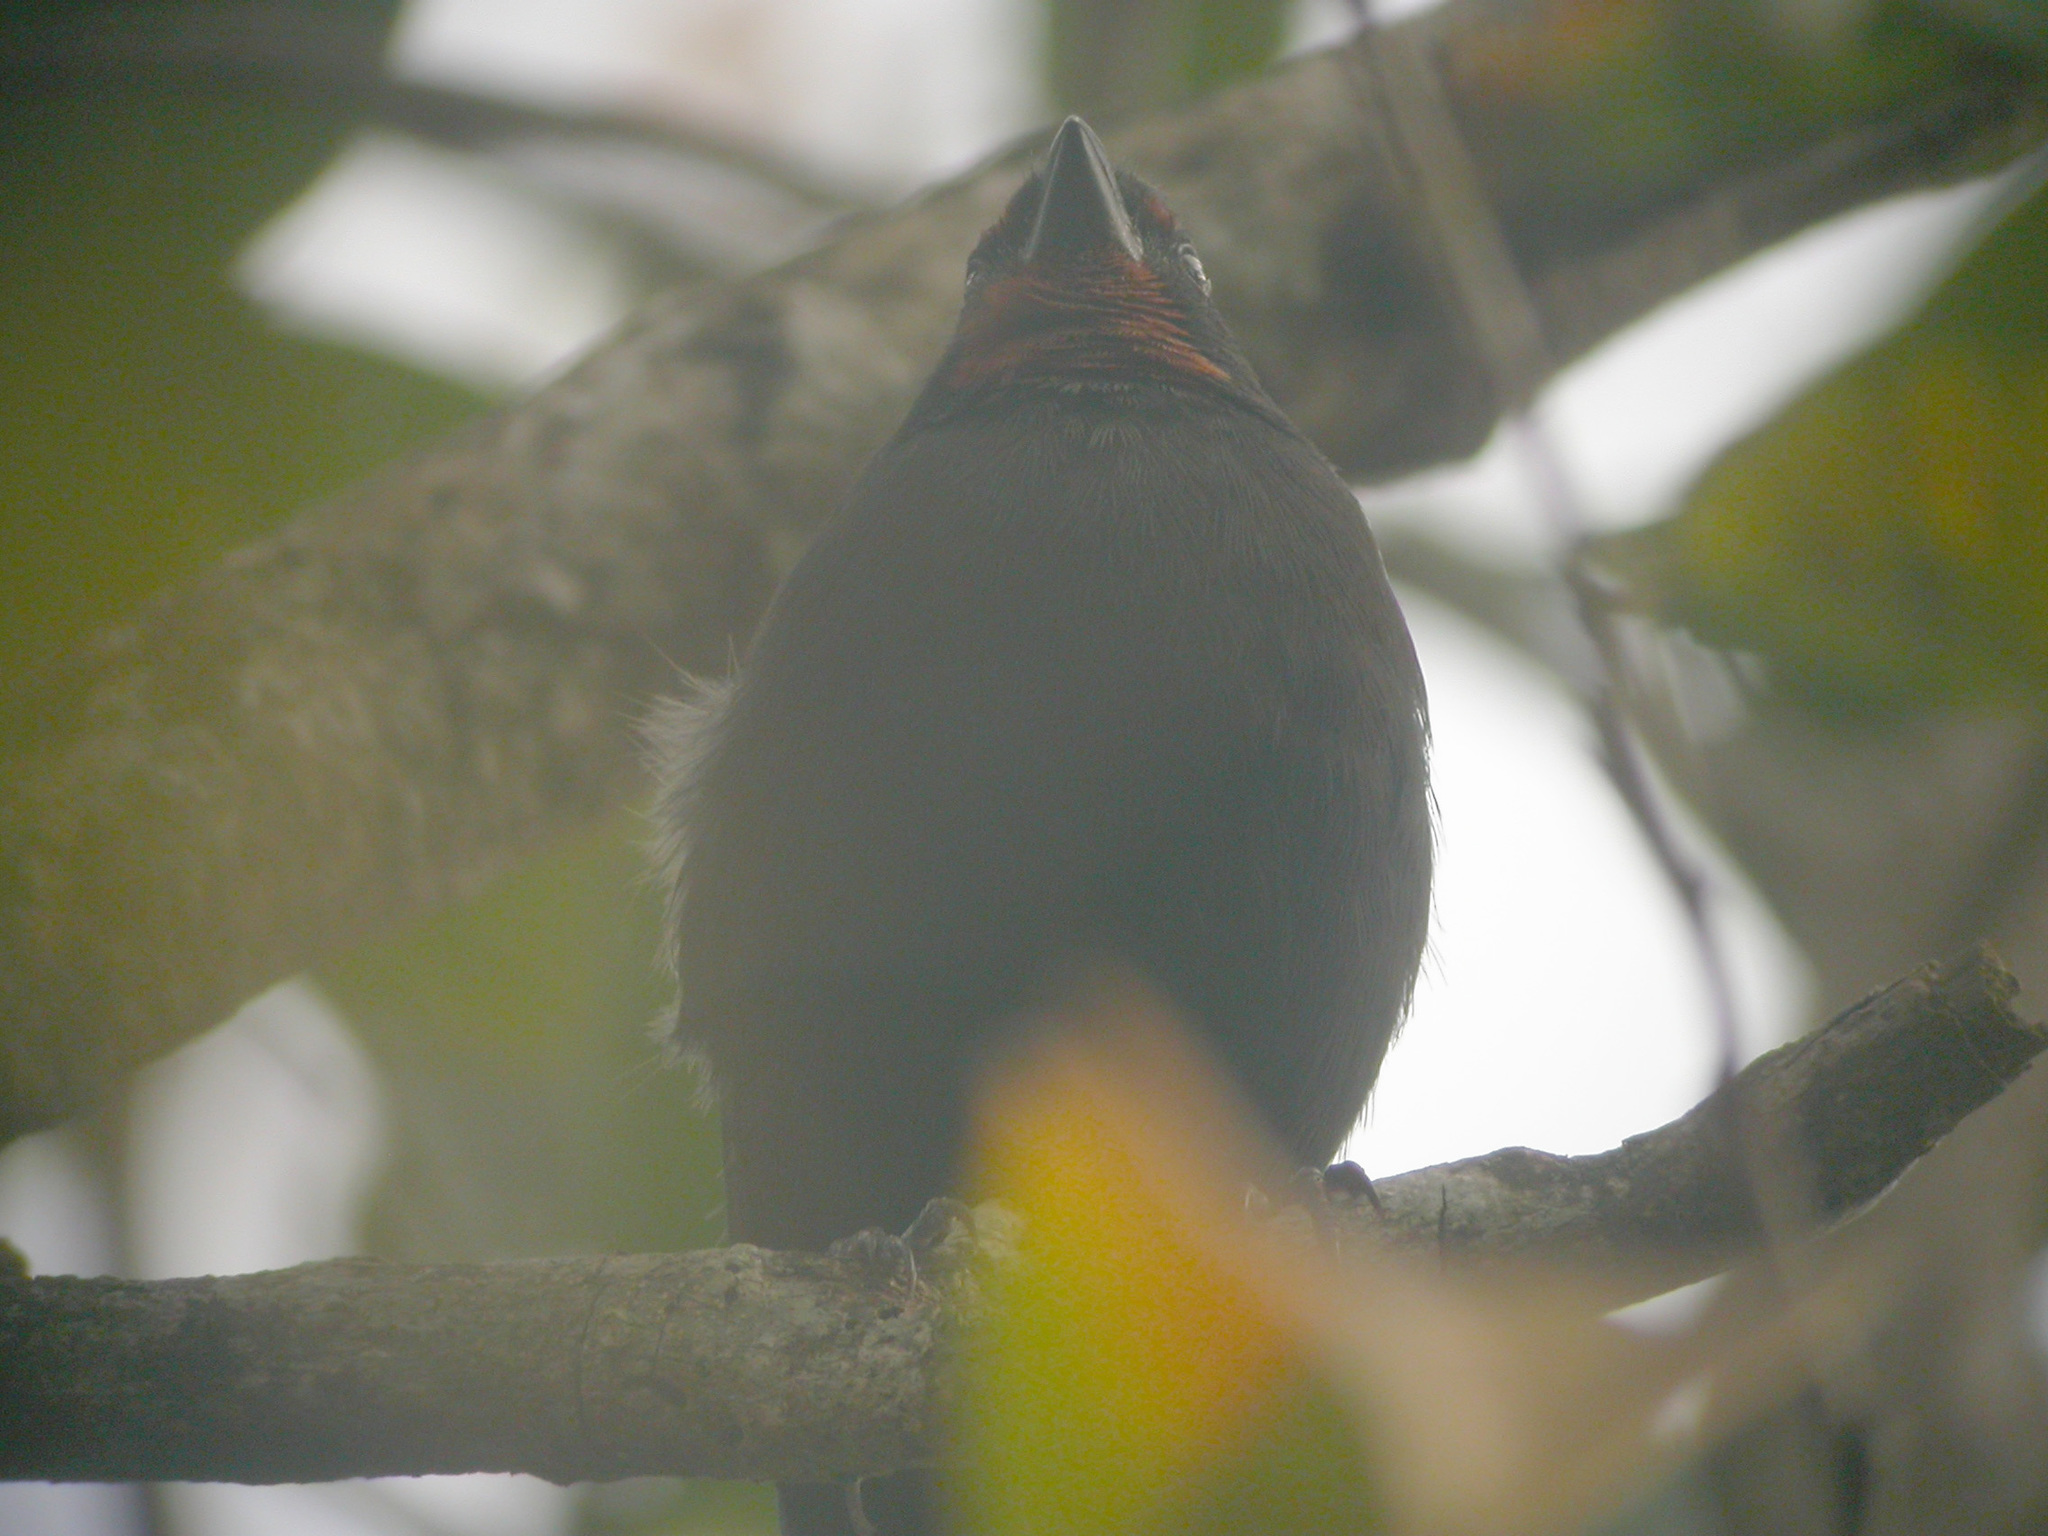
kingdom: Animalia
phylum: Chordata
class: Aves
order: Passeriformes
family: Thraupidae
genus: Loxigilla
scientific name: Loxigilla noctis
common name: Lesser antillean bullfinch
